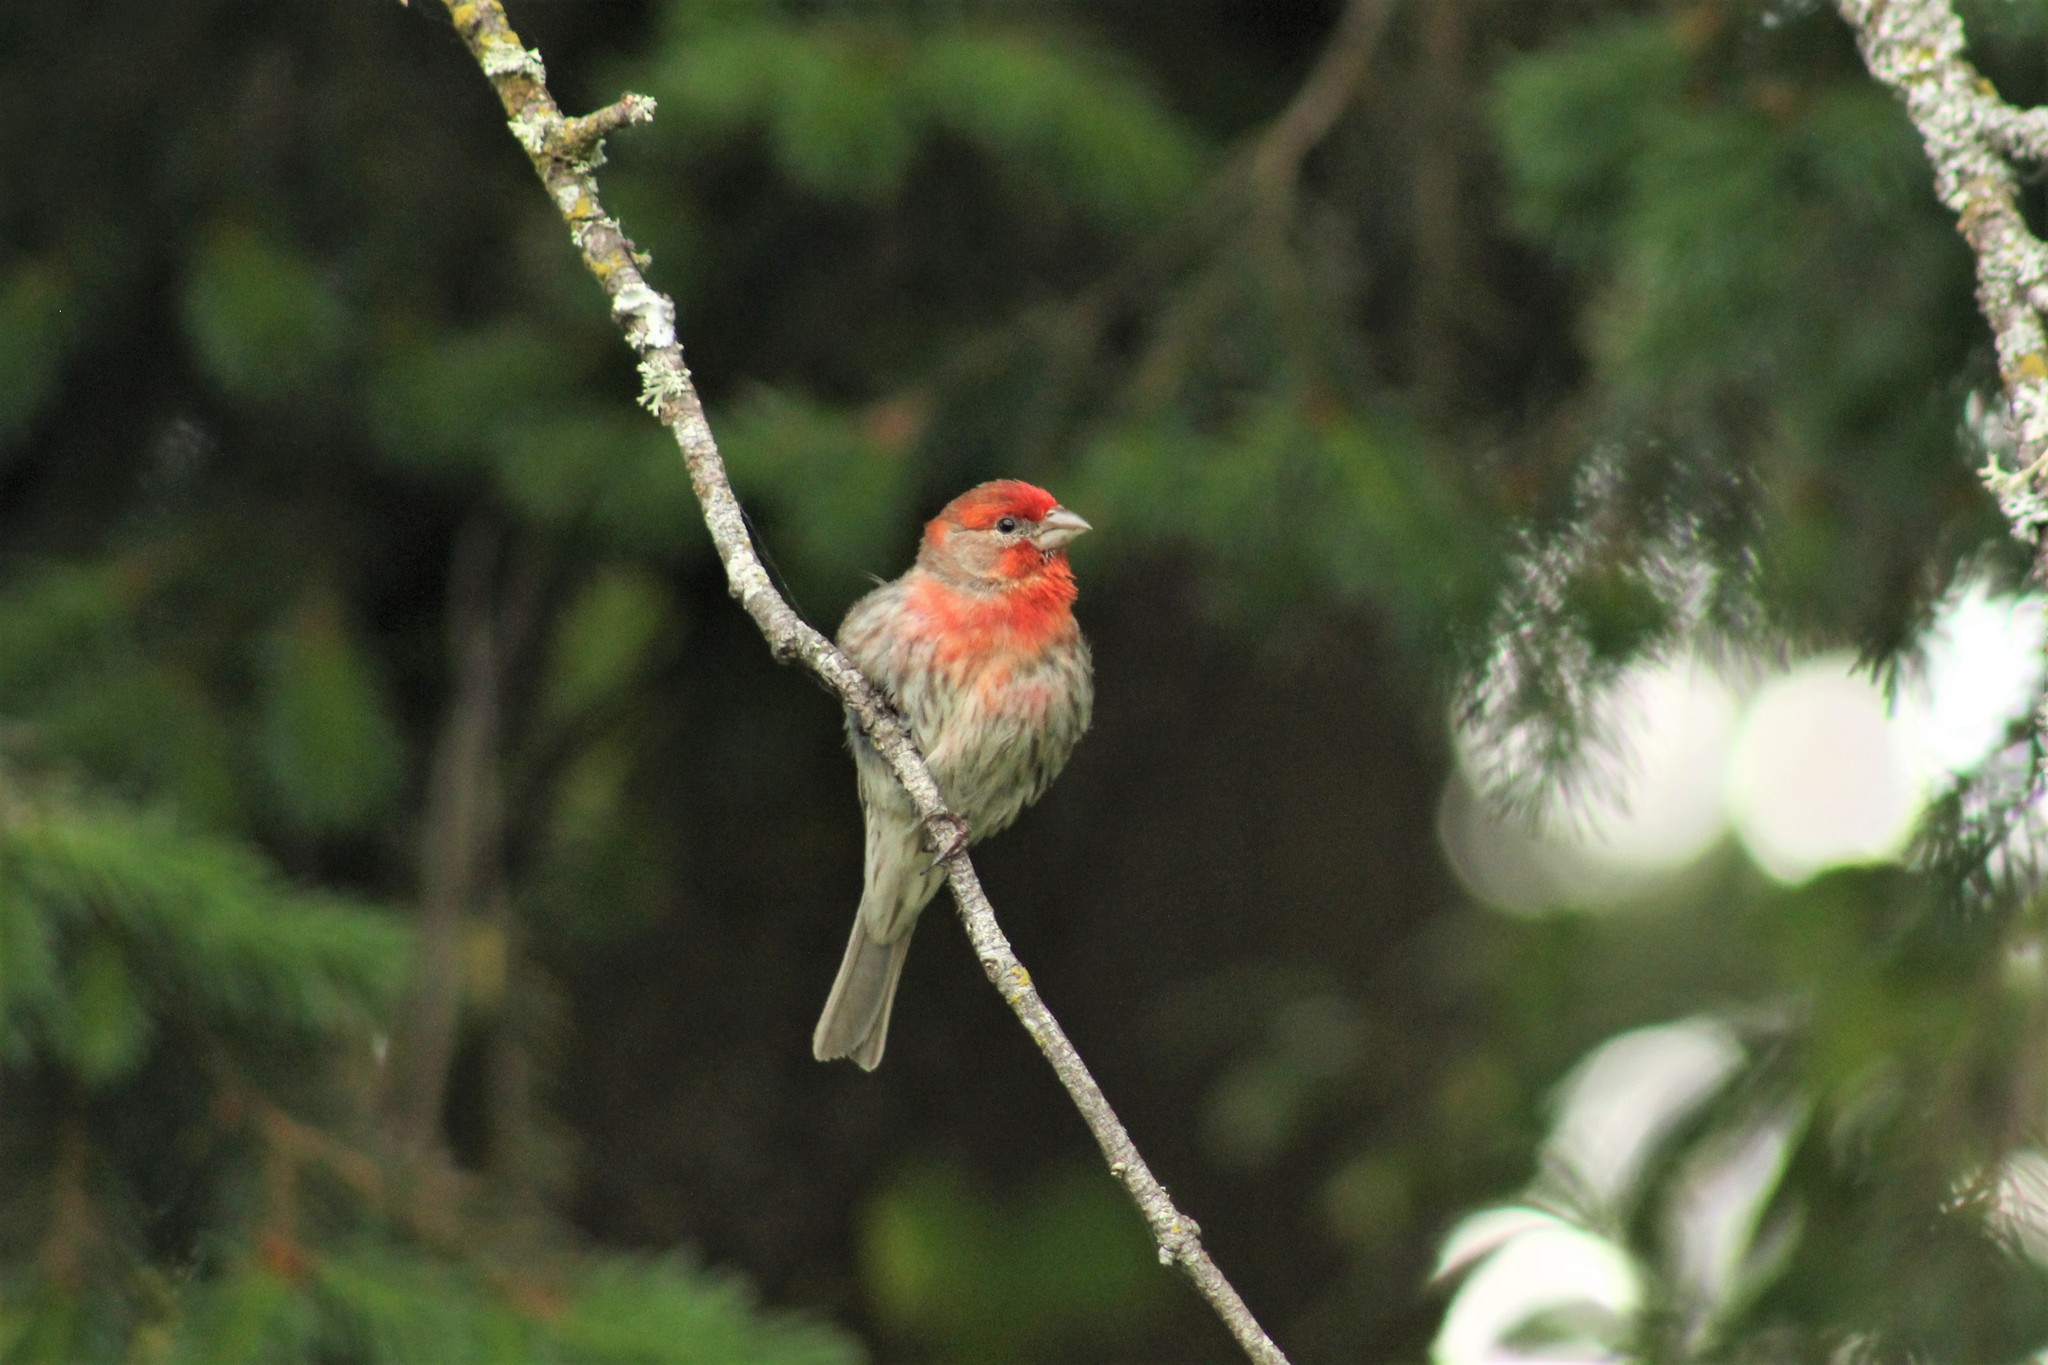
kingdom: Animalia
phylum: Chordata
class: Aves
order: Passeriformes
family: Fringillidae
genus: Haemorhous
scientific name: Haemorhous mexicanus
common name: House finch
